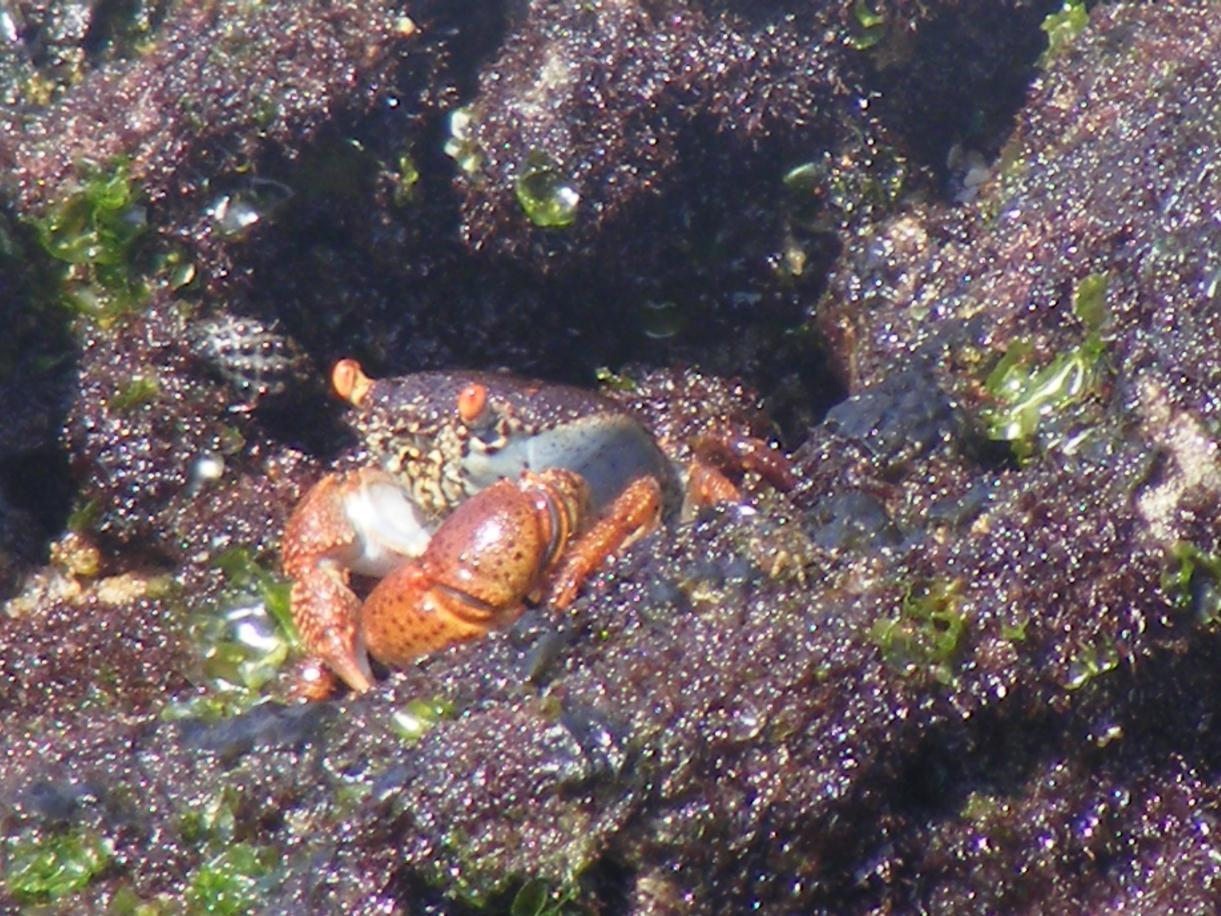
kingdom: Animalia
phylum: Arthropoda
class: Malacostraca
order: Decapoda
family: Eriphiidae
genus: Eriphia
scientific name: Eriphia smithii
